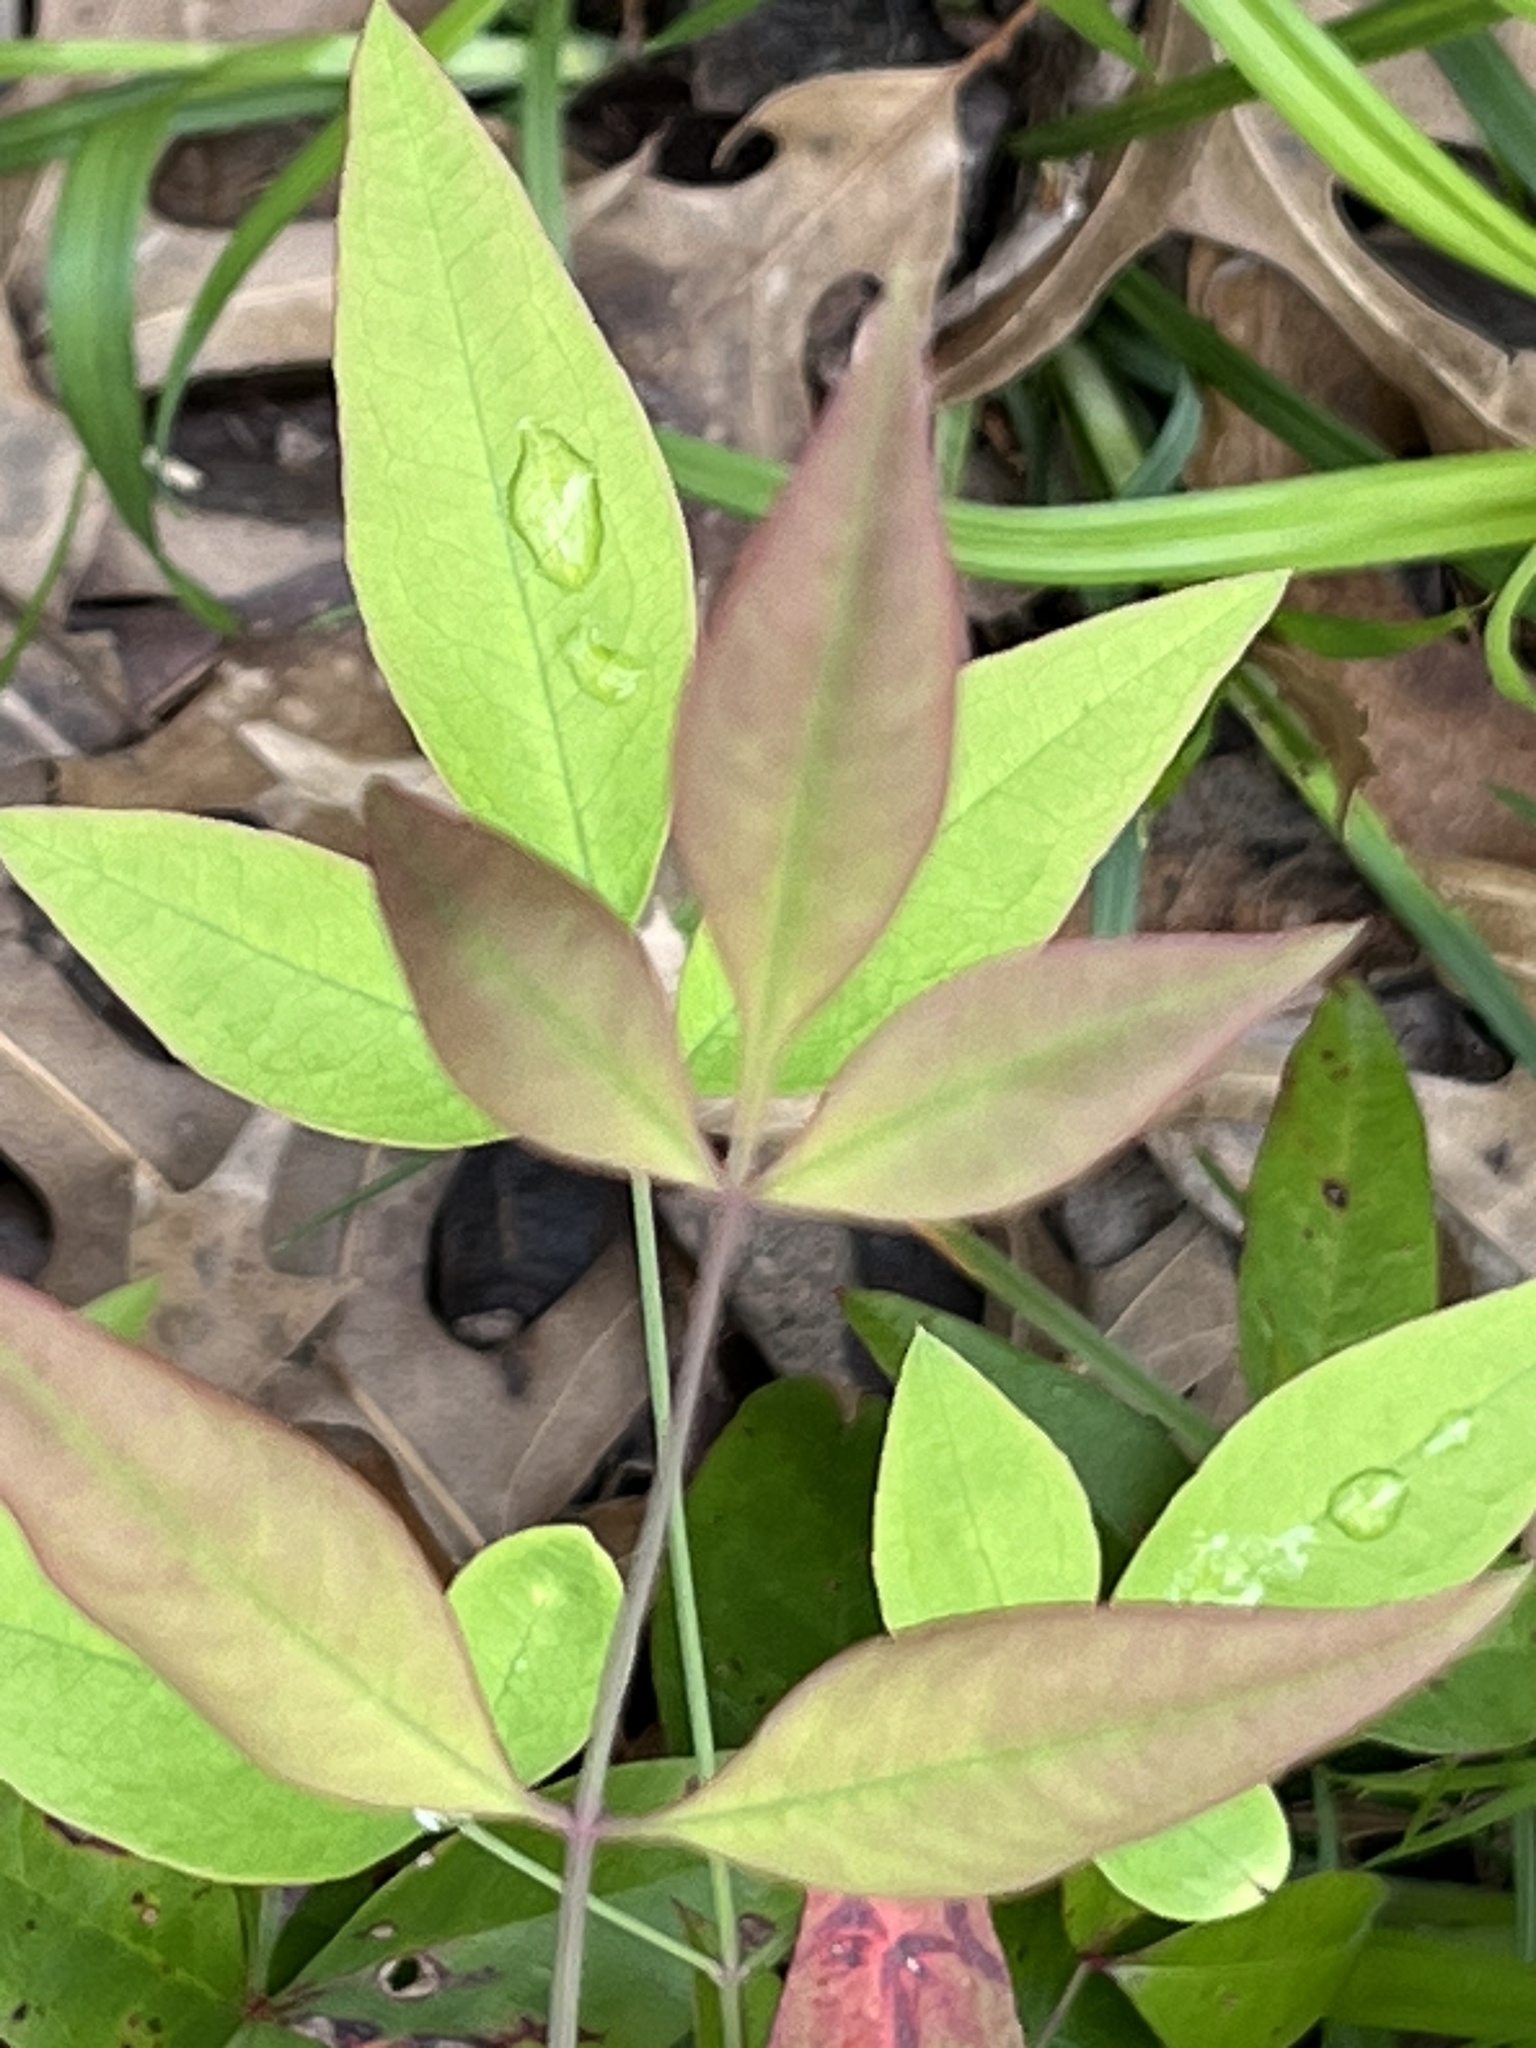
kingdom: Plantae
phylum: Tracheophyta
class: Magnoliopsida
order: Ranunculales
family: Berberidaceae
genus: Nandina
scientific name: Nandina domestica
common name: Sacred bamboo
